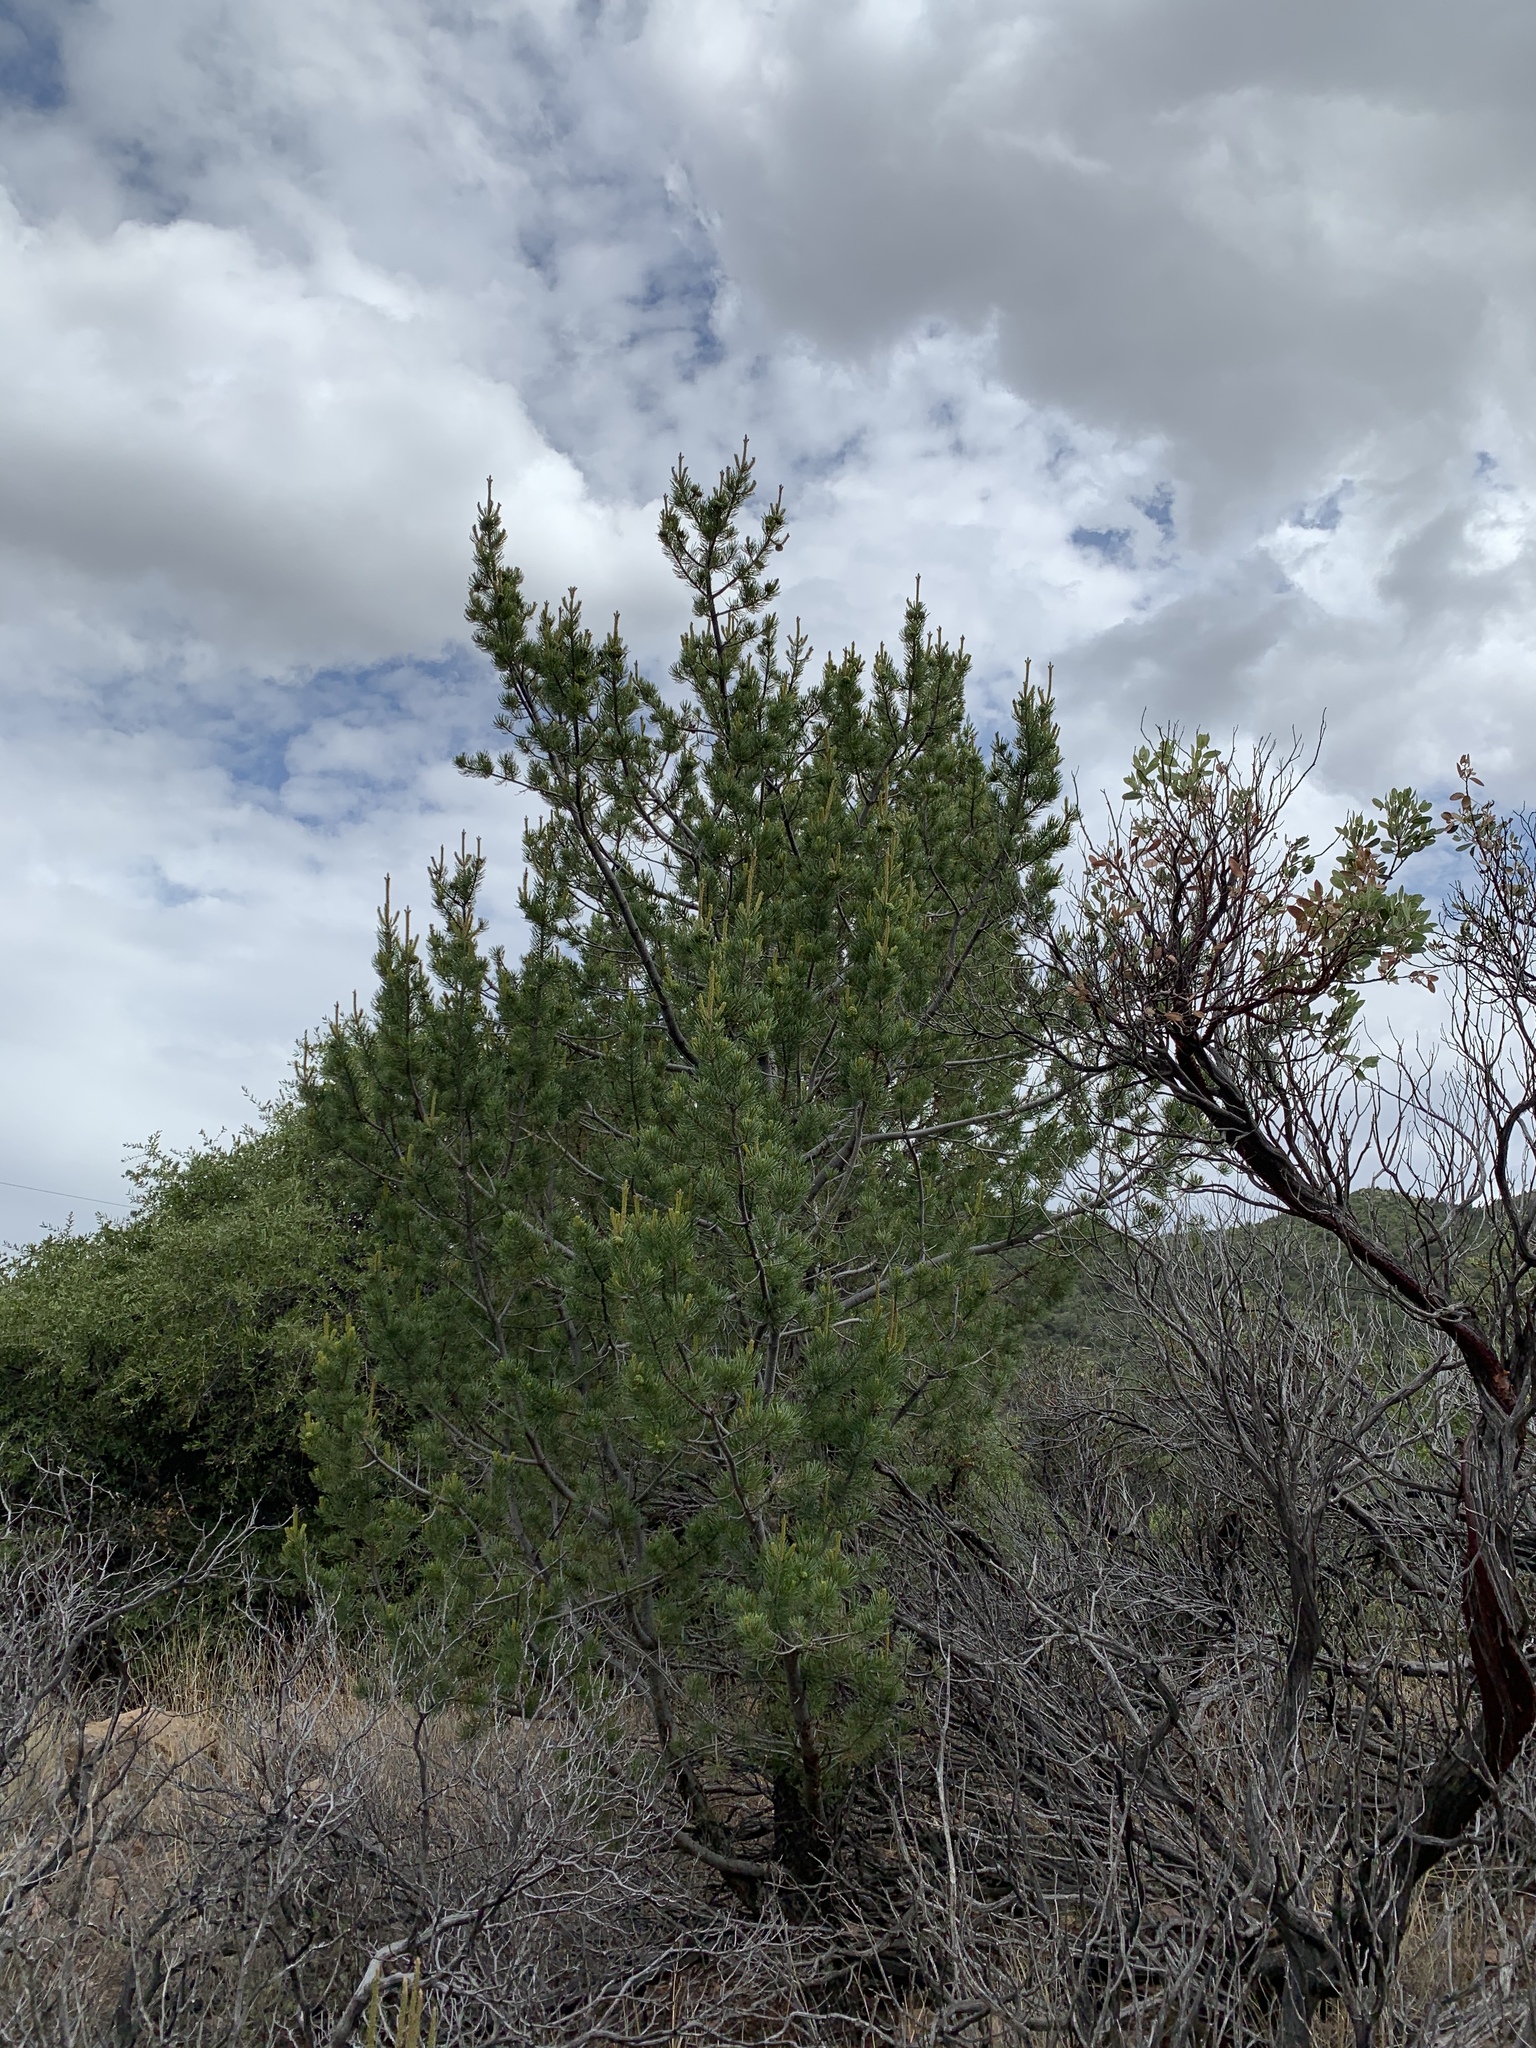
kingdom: Plantae
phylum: Tracheophyta
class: Pinopsida
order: Pinales
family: Pinaceae
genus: Pinus
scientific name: Pinus cembroides
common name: Mexican nut pine
